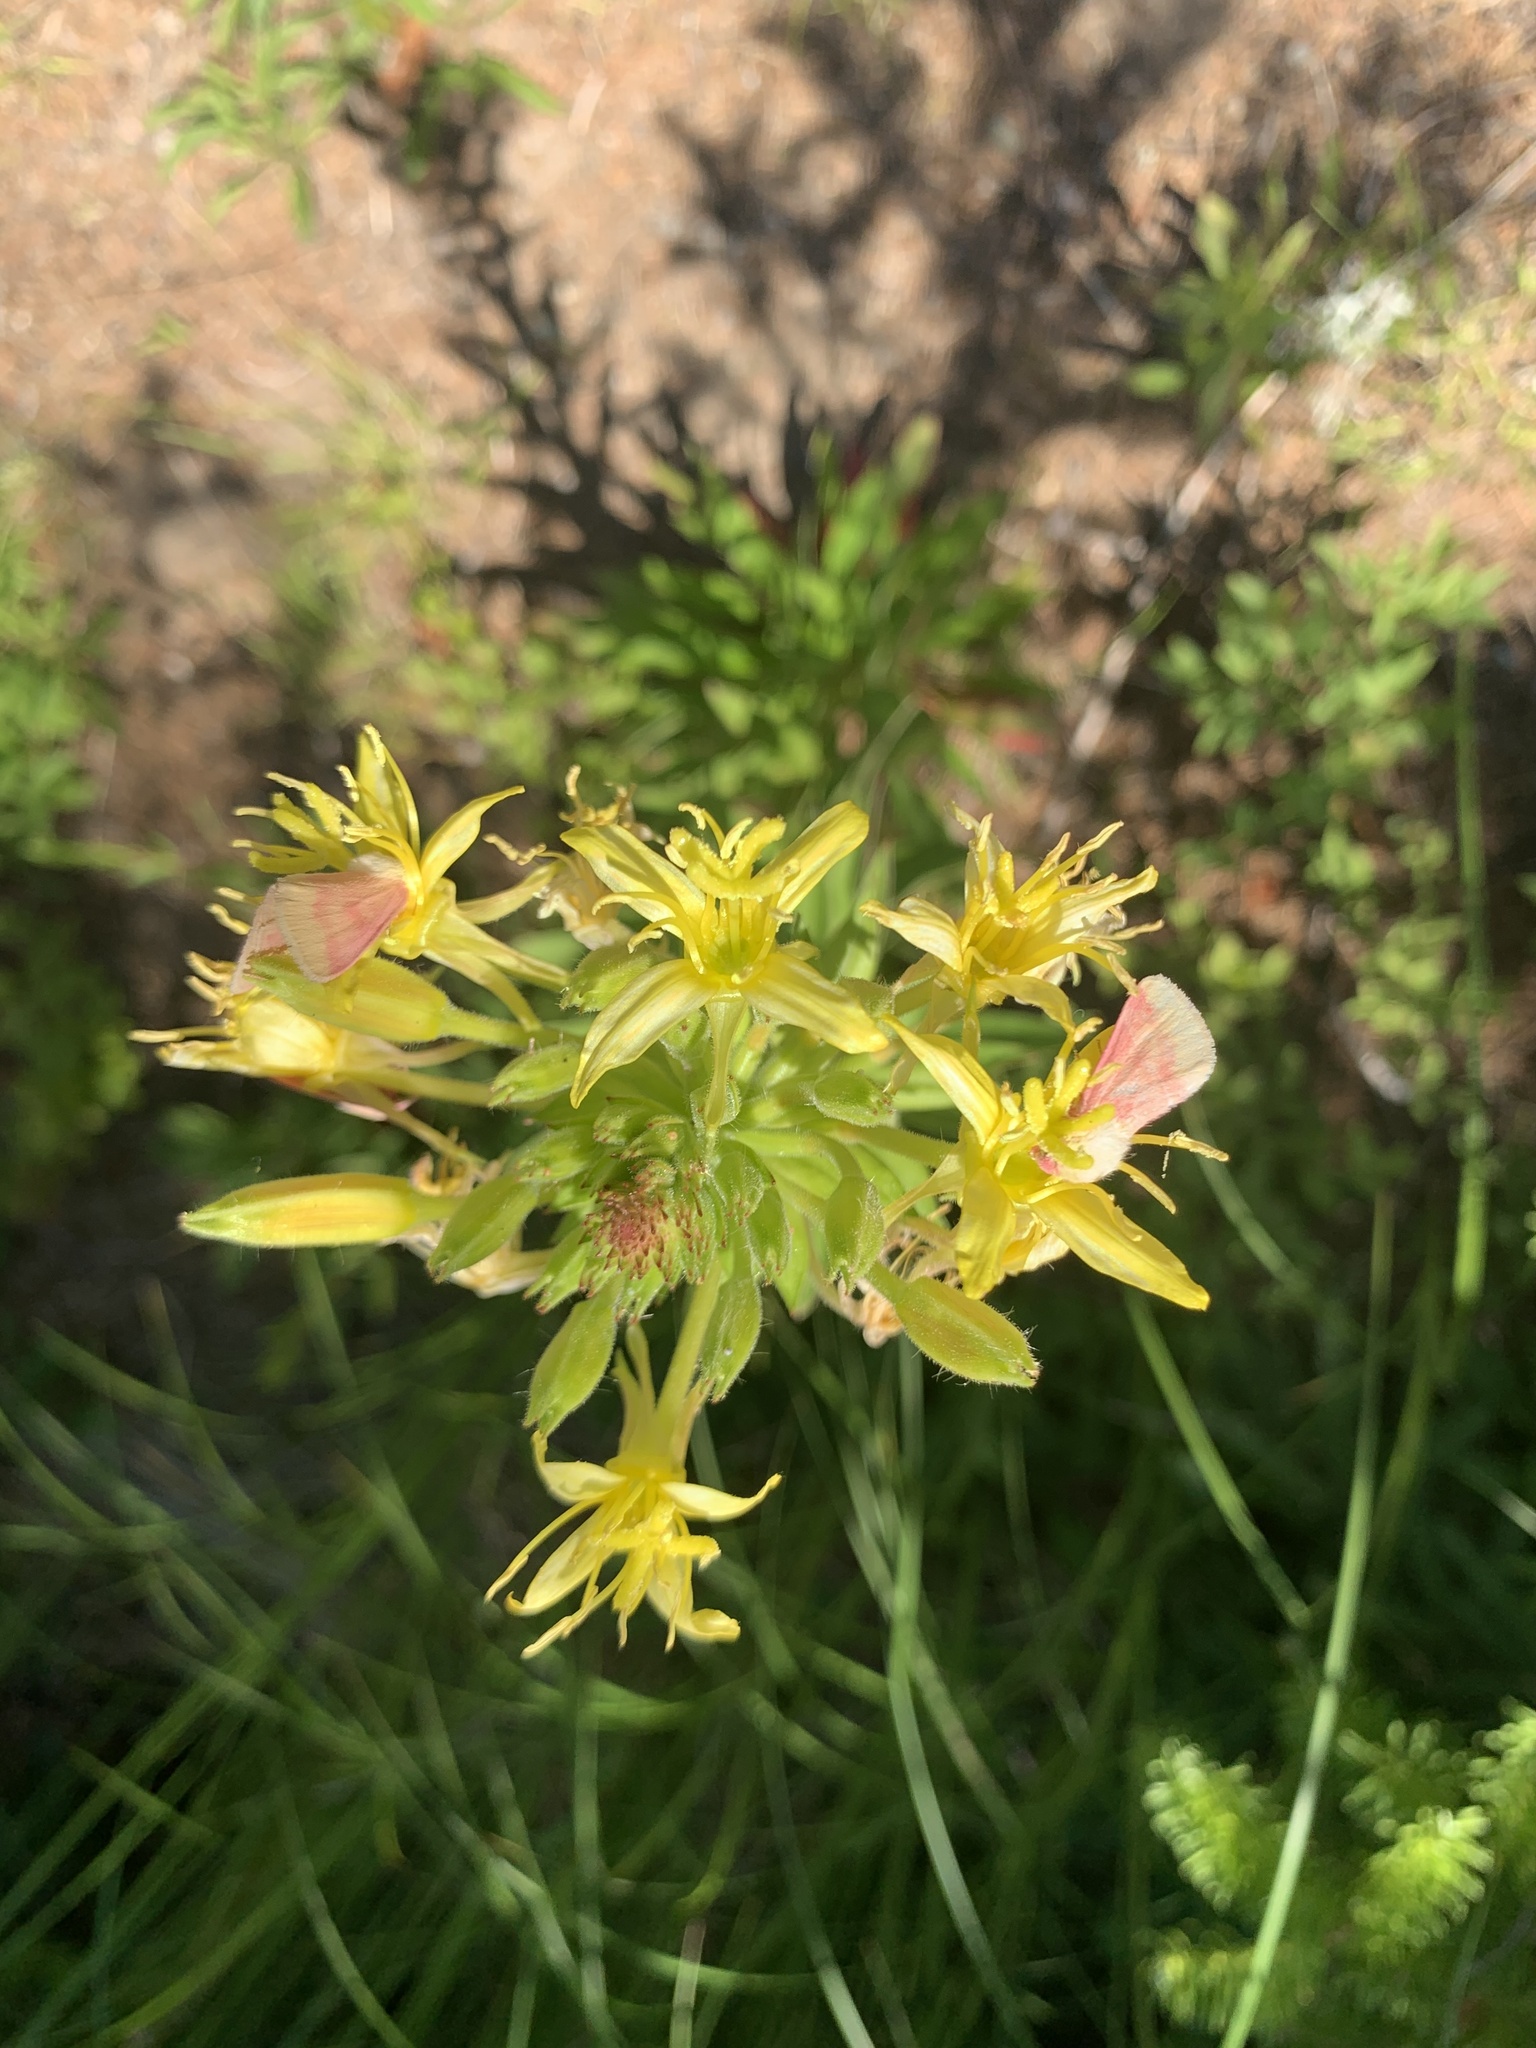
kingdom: Animalia
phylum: Arthropoda
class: Insecta
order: Lepidoptera
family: Noctuidae
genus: Schinia
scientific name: Schinia florida
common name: Primrose moth
